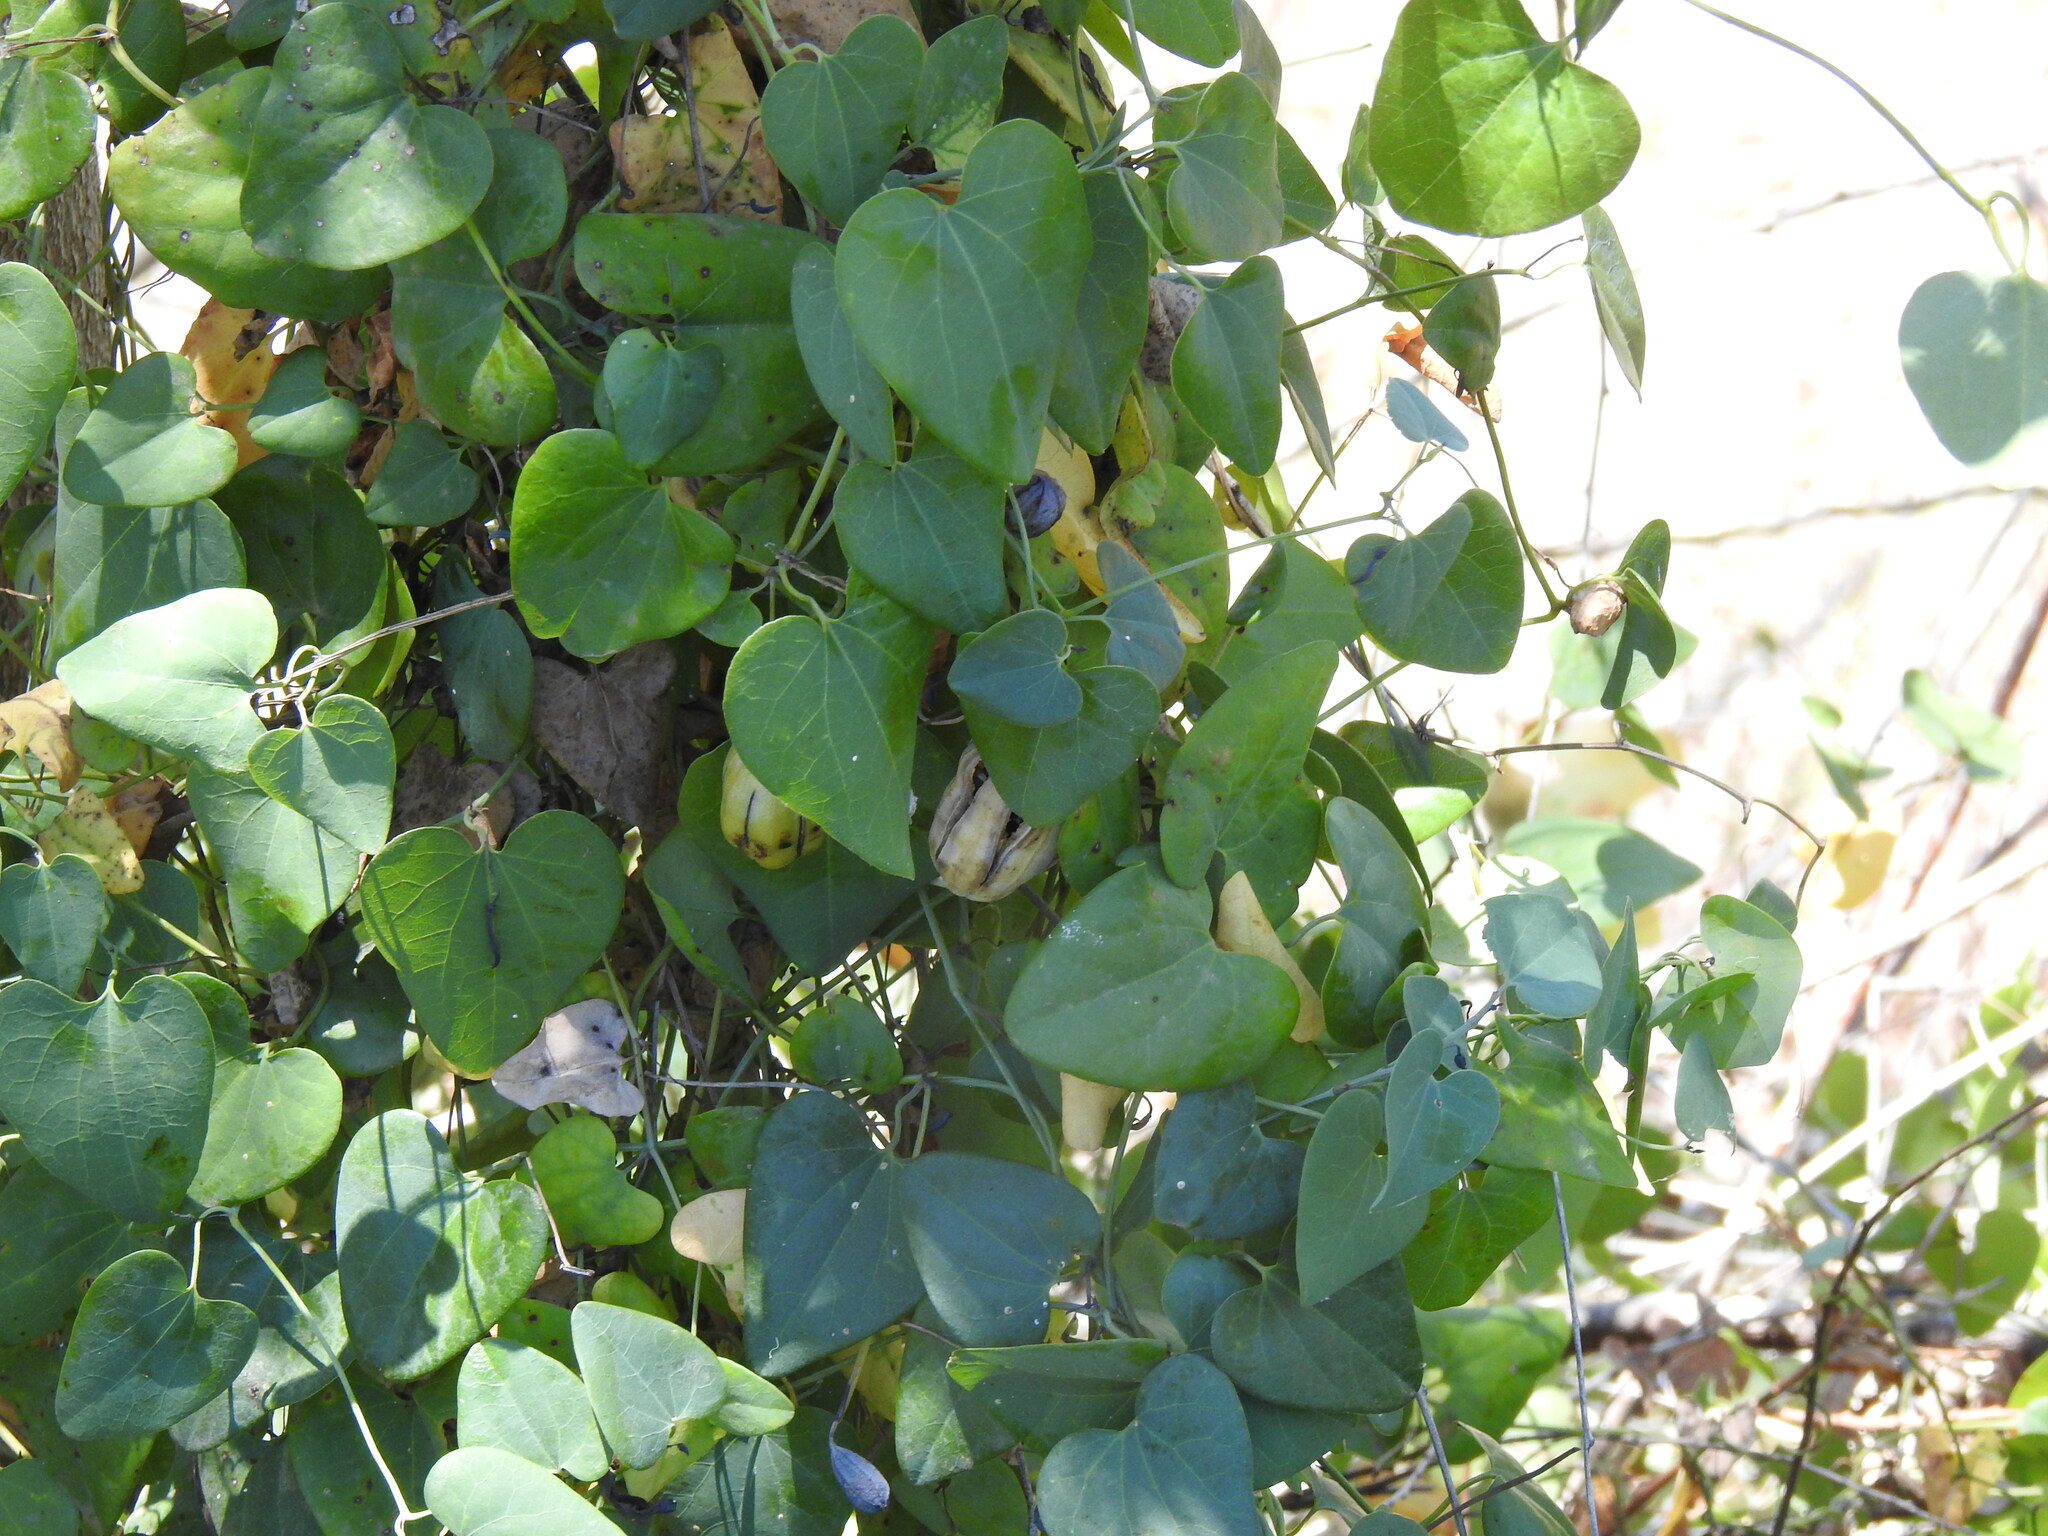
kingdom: Plantae
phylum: Tracheophyta
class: Magnoliopsida
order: Piperales
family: Aristolochiaceae
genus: Aristolochia
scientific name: Aristolochia baetica
